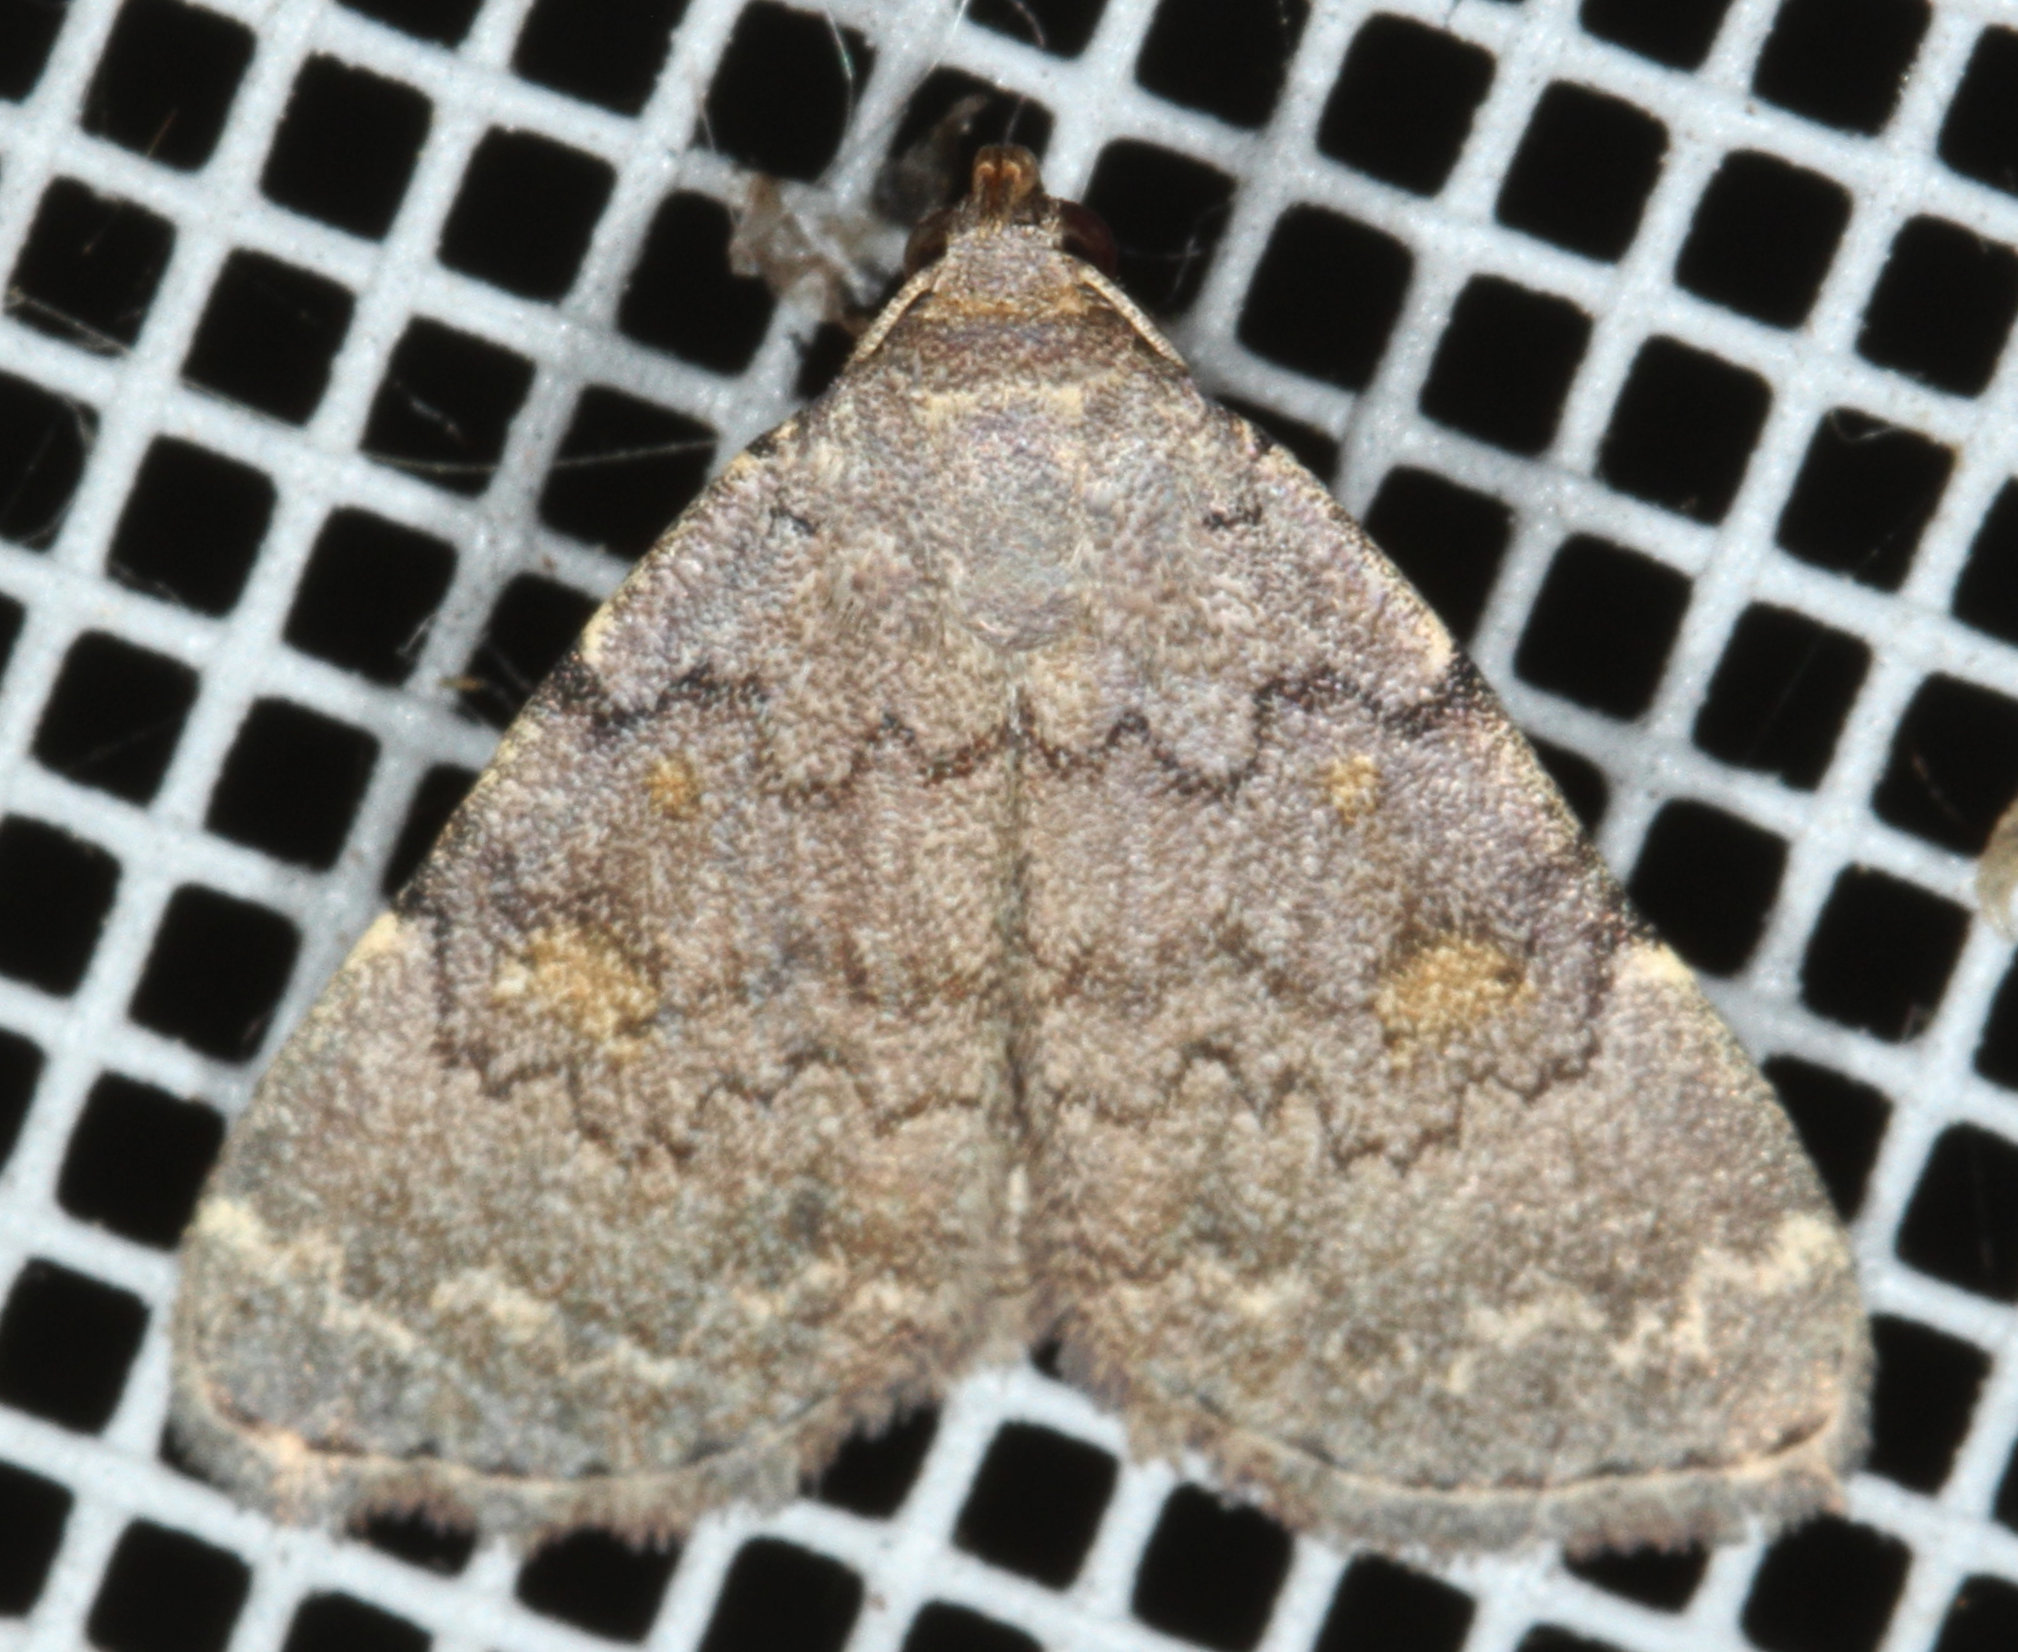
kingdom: Animalia
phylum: Arthropoda
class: Insecta
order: Lepidoptera
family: Erebidae
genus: Idia
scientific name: Idia aemula
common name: Common idia moth
